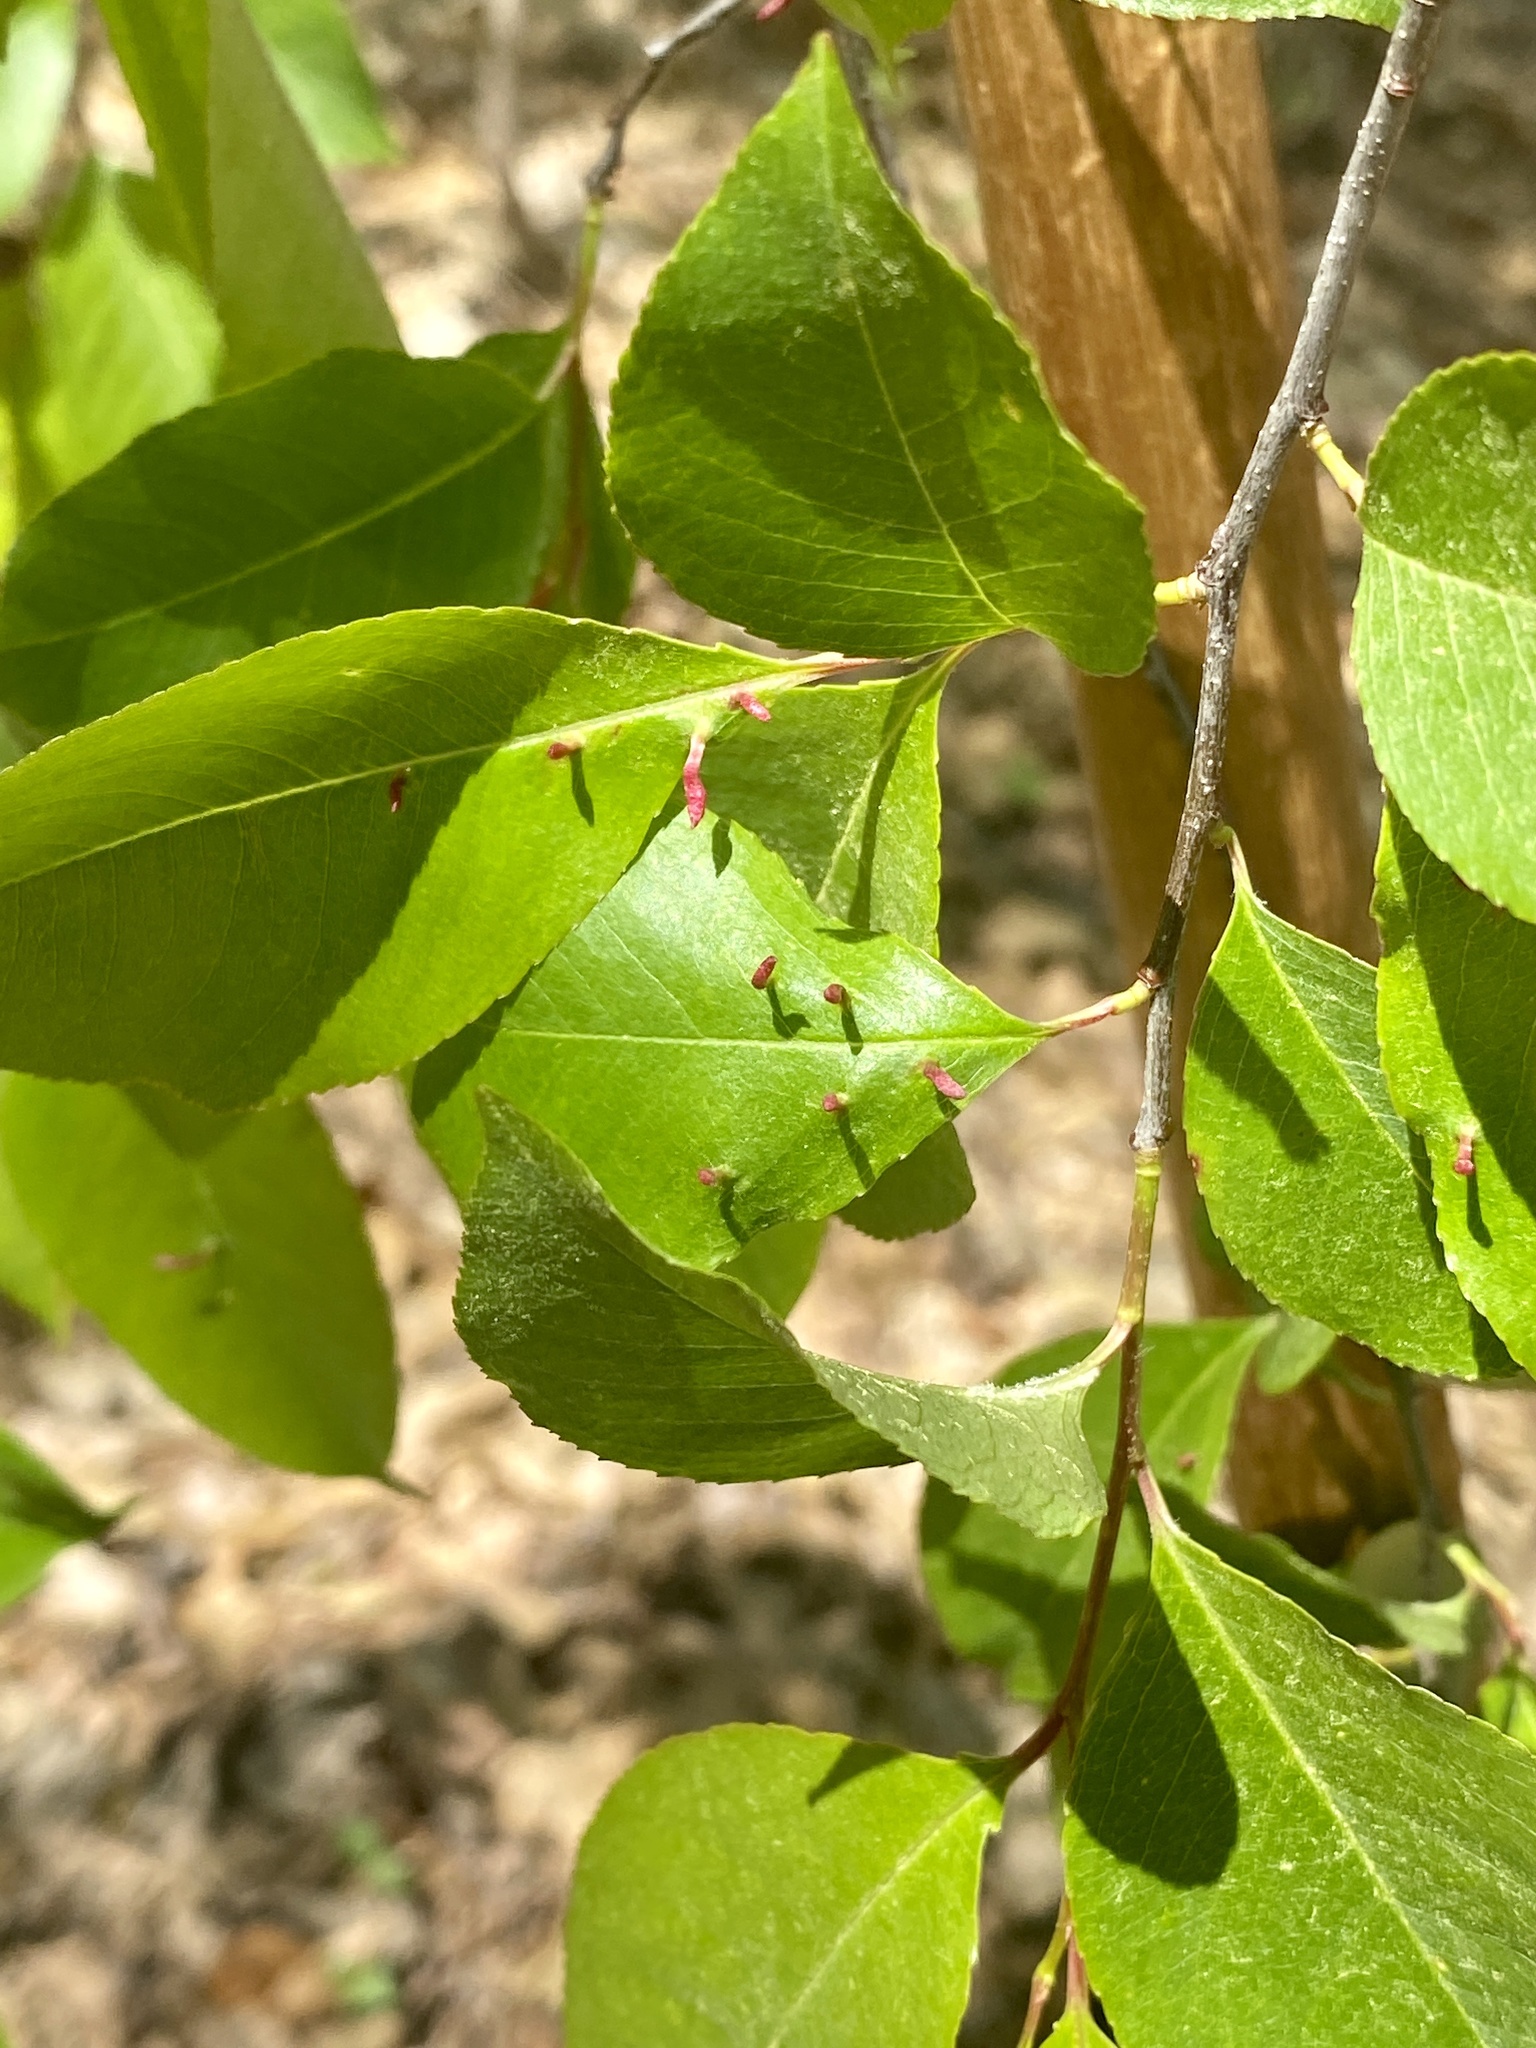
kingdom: Animalia
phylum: Arthropoda
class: Arachnida
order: Trombidiformes
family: Eriophyidae
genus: Eriophyes
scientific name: Eriophyes
